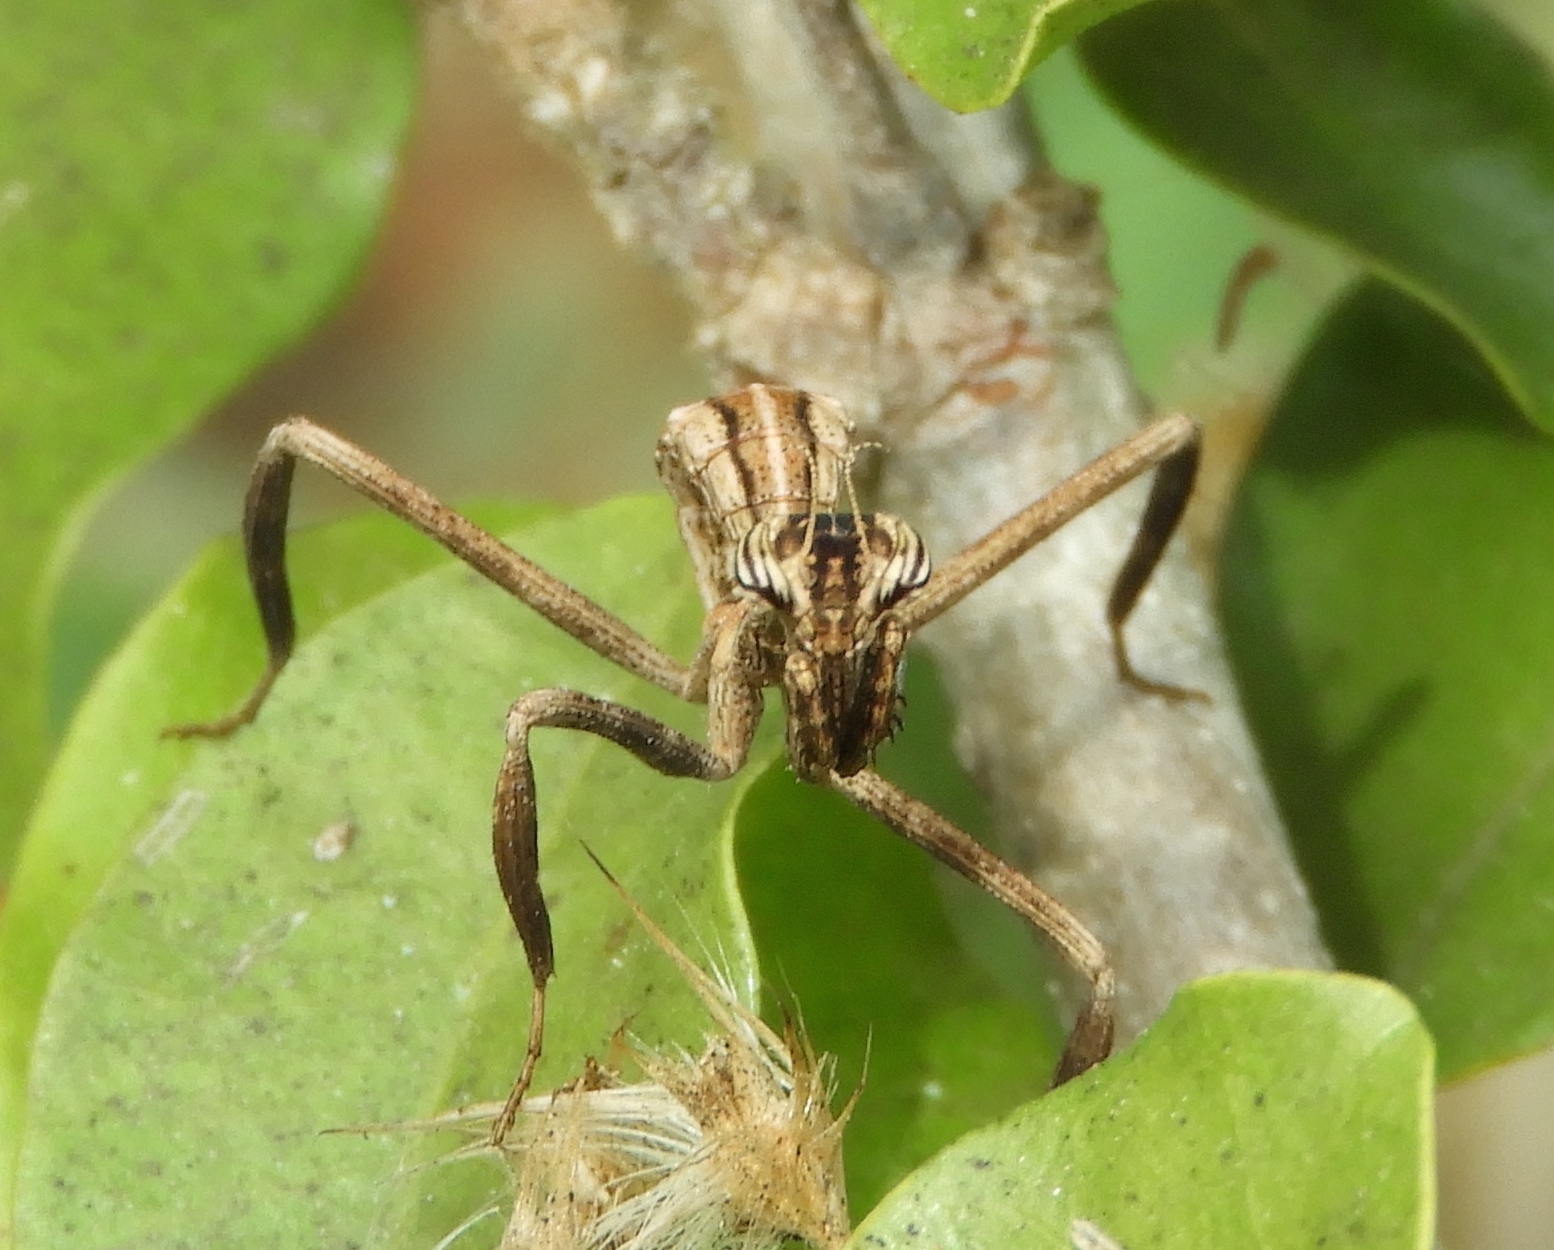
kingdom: Animalia
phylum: Arthropoda
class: Insecta
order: Mantodea
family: Mantidae
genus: Pseudovates
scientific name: Pseudovates chlorophaea
